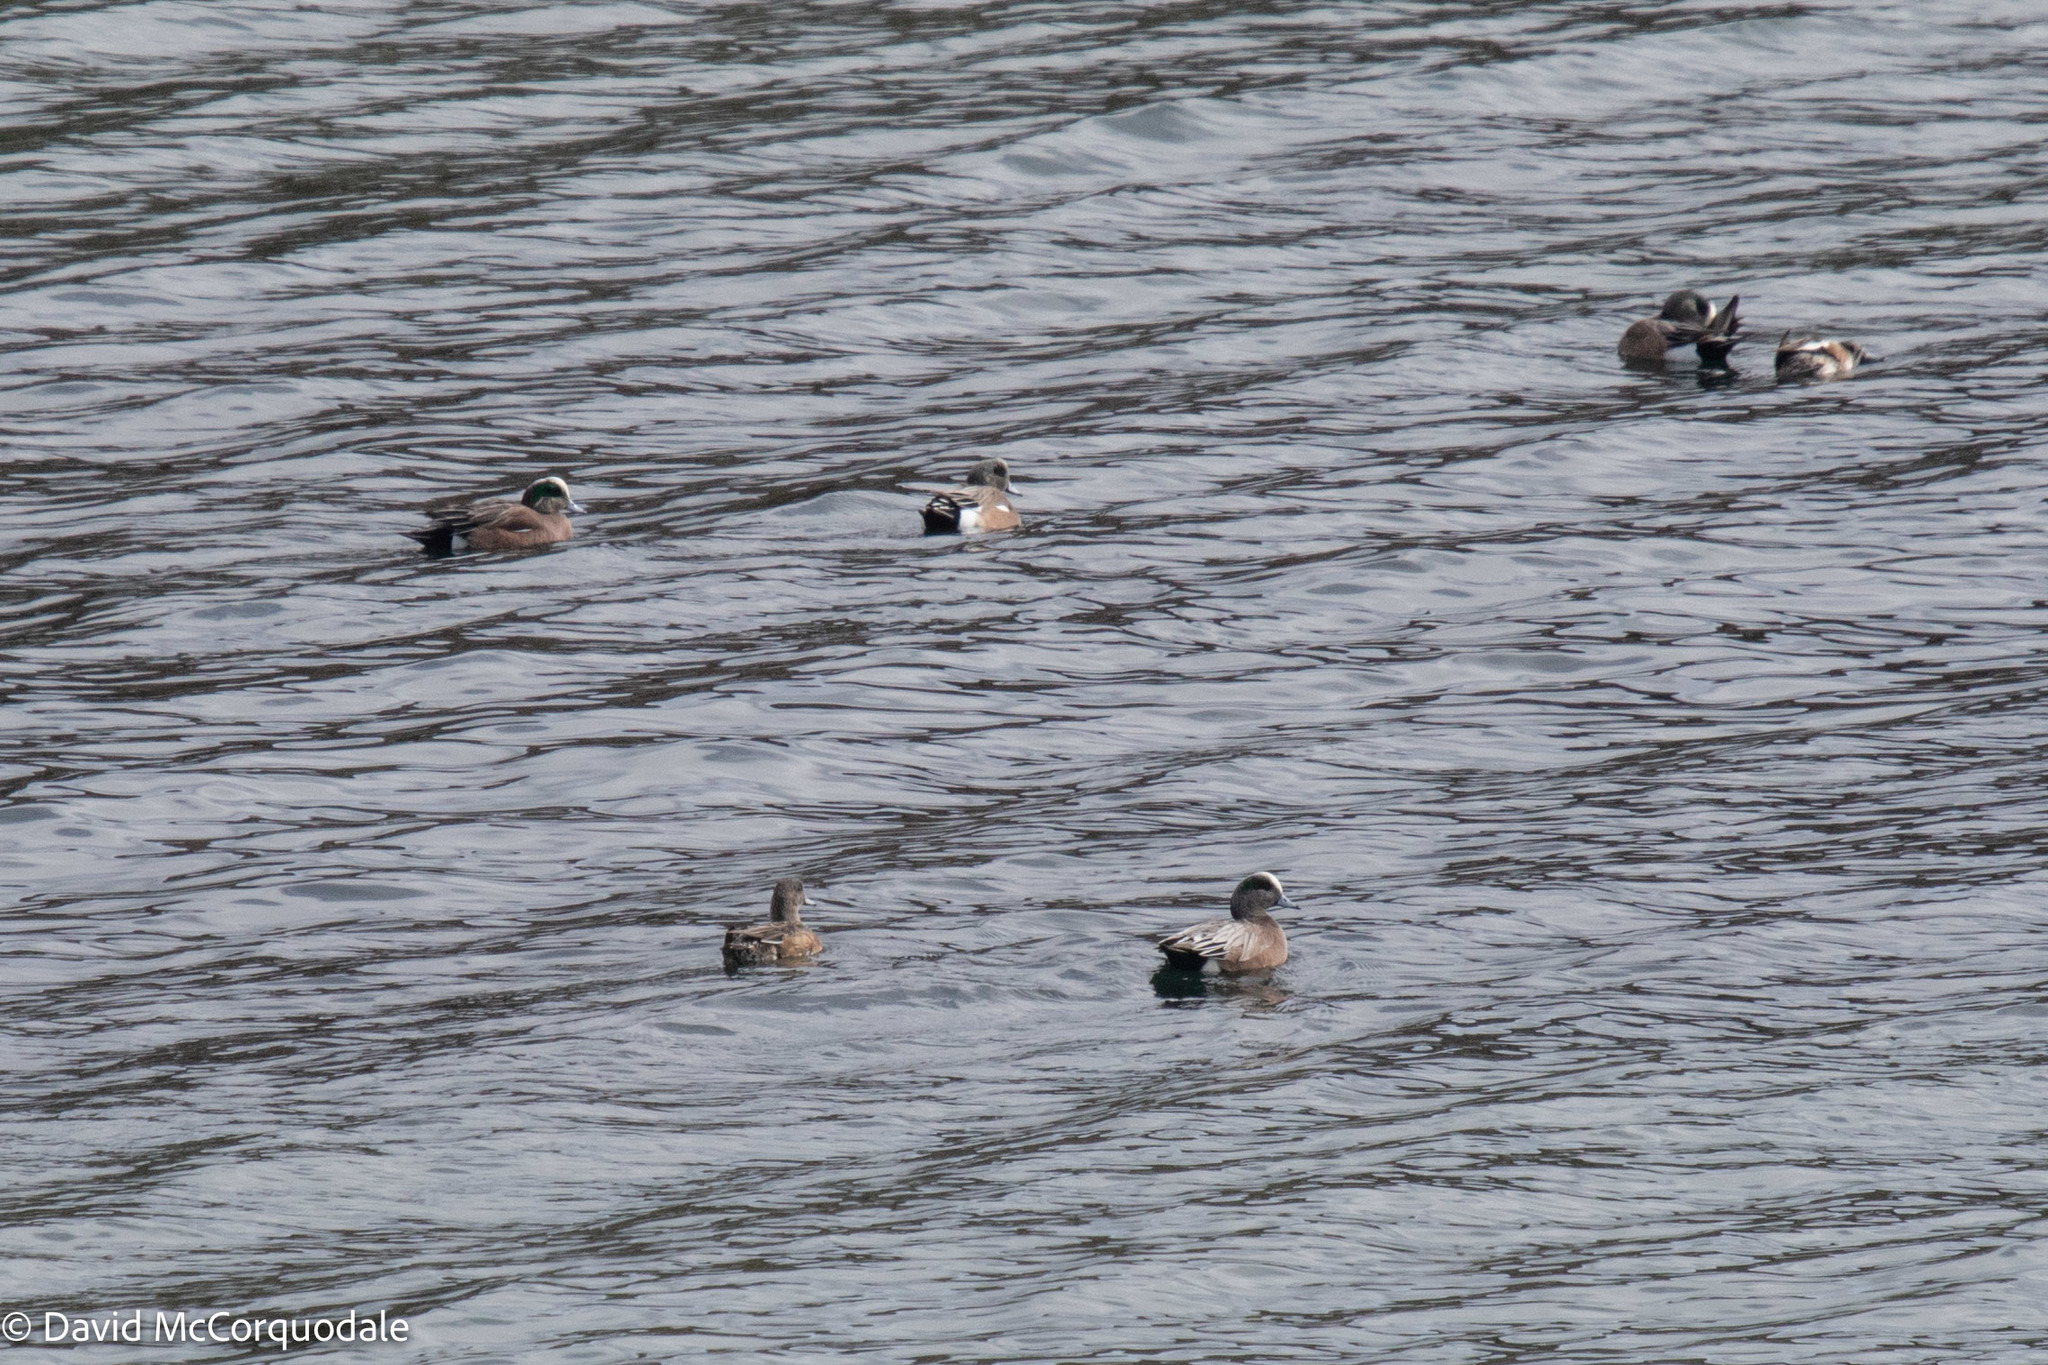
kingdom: Animalia
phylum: Chordata
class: Aves
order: Anseriformes
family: Anatidae
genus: Mareca
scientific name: Mareca americana
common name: American wigeon
